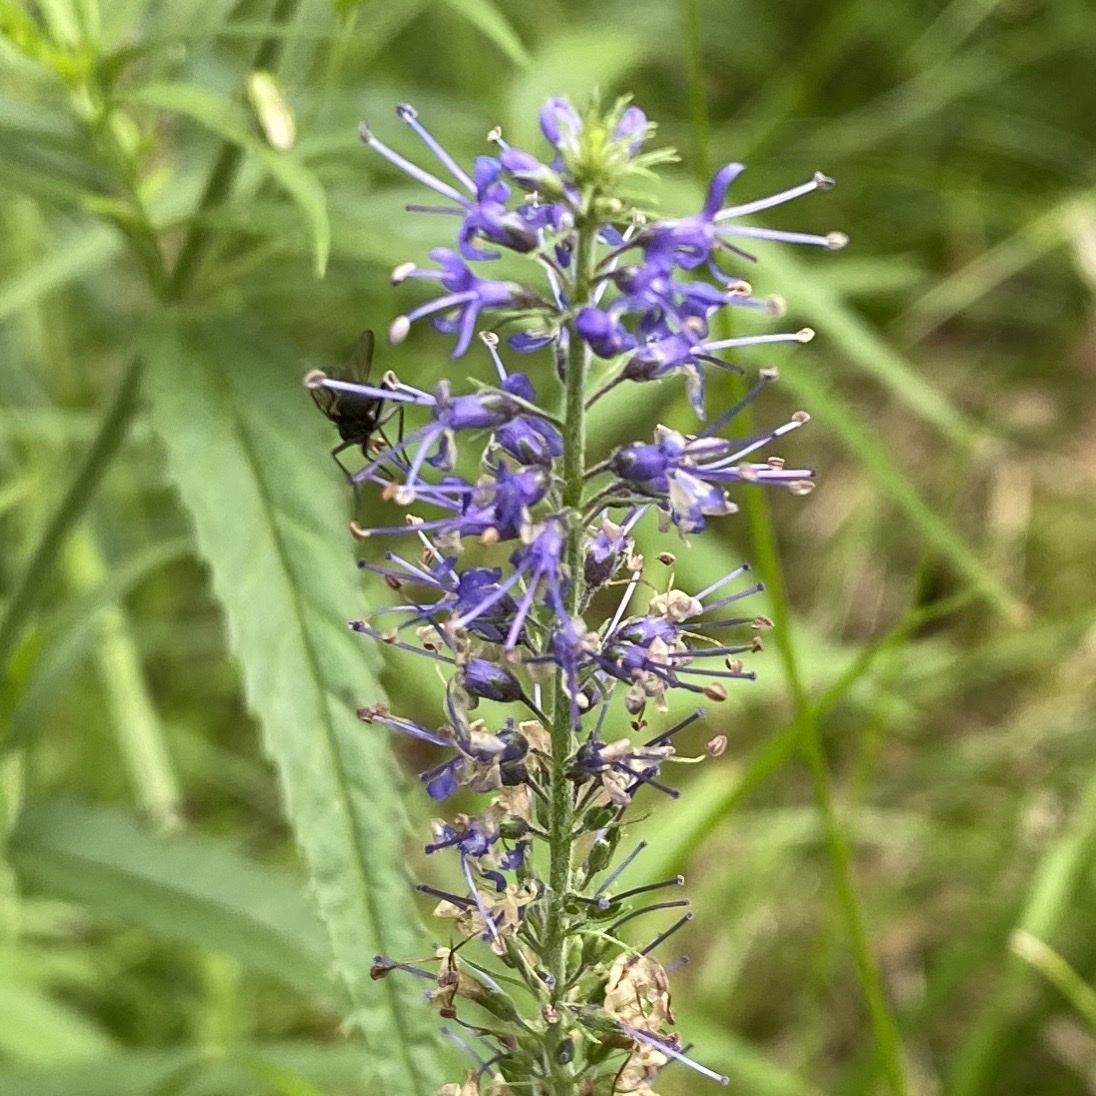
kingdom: Plantae
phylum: Tracheophyta
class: Magnoliopsida
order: Lamiales
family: Plantaginaceae
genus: Veronica
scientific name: Veronica longifolia
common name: Garden speedwell
